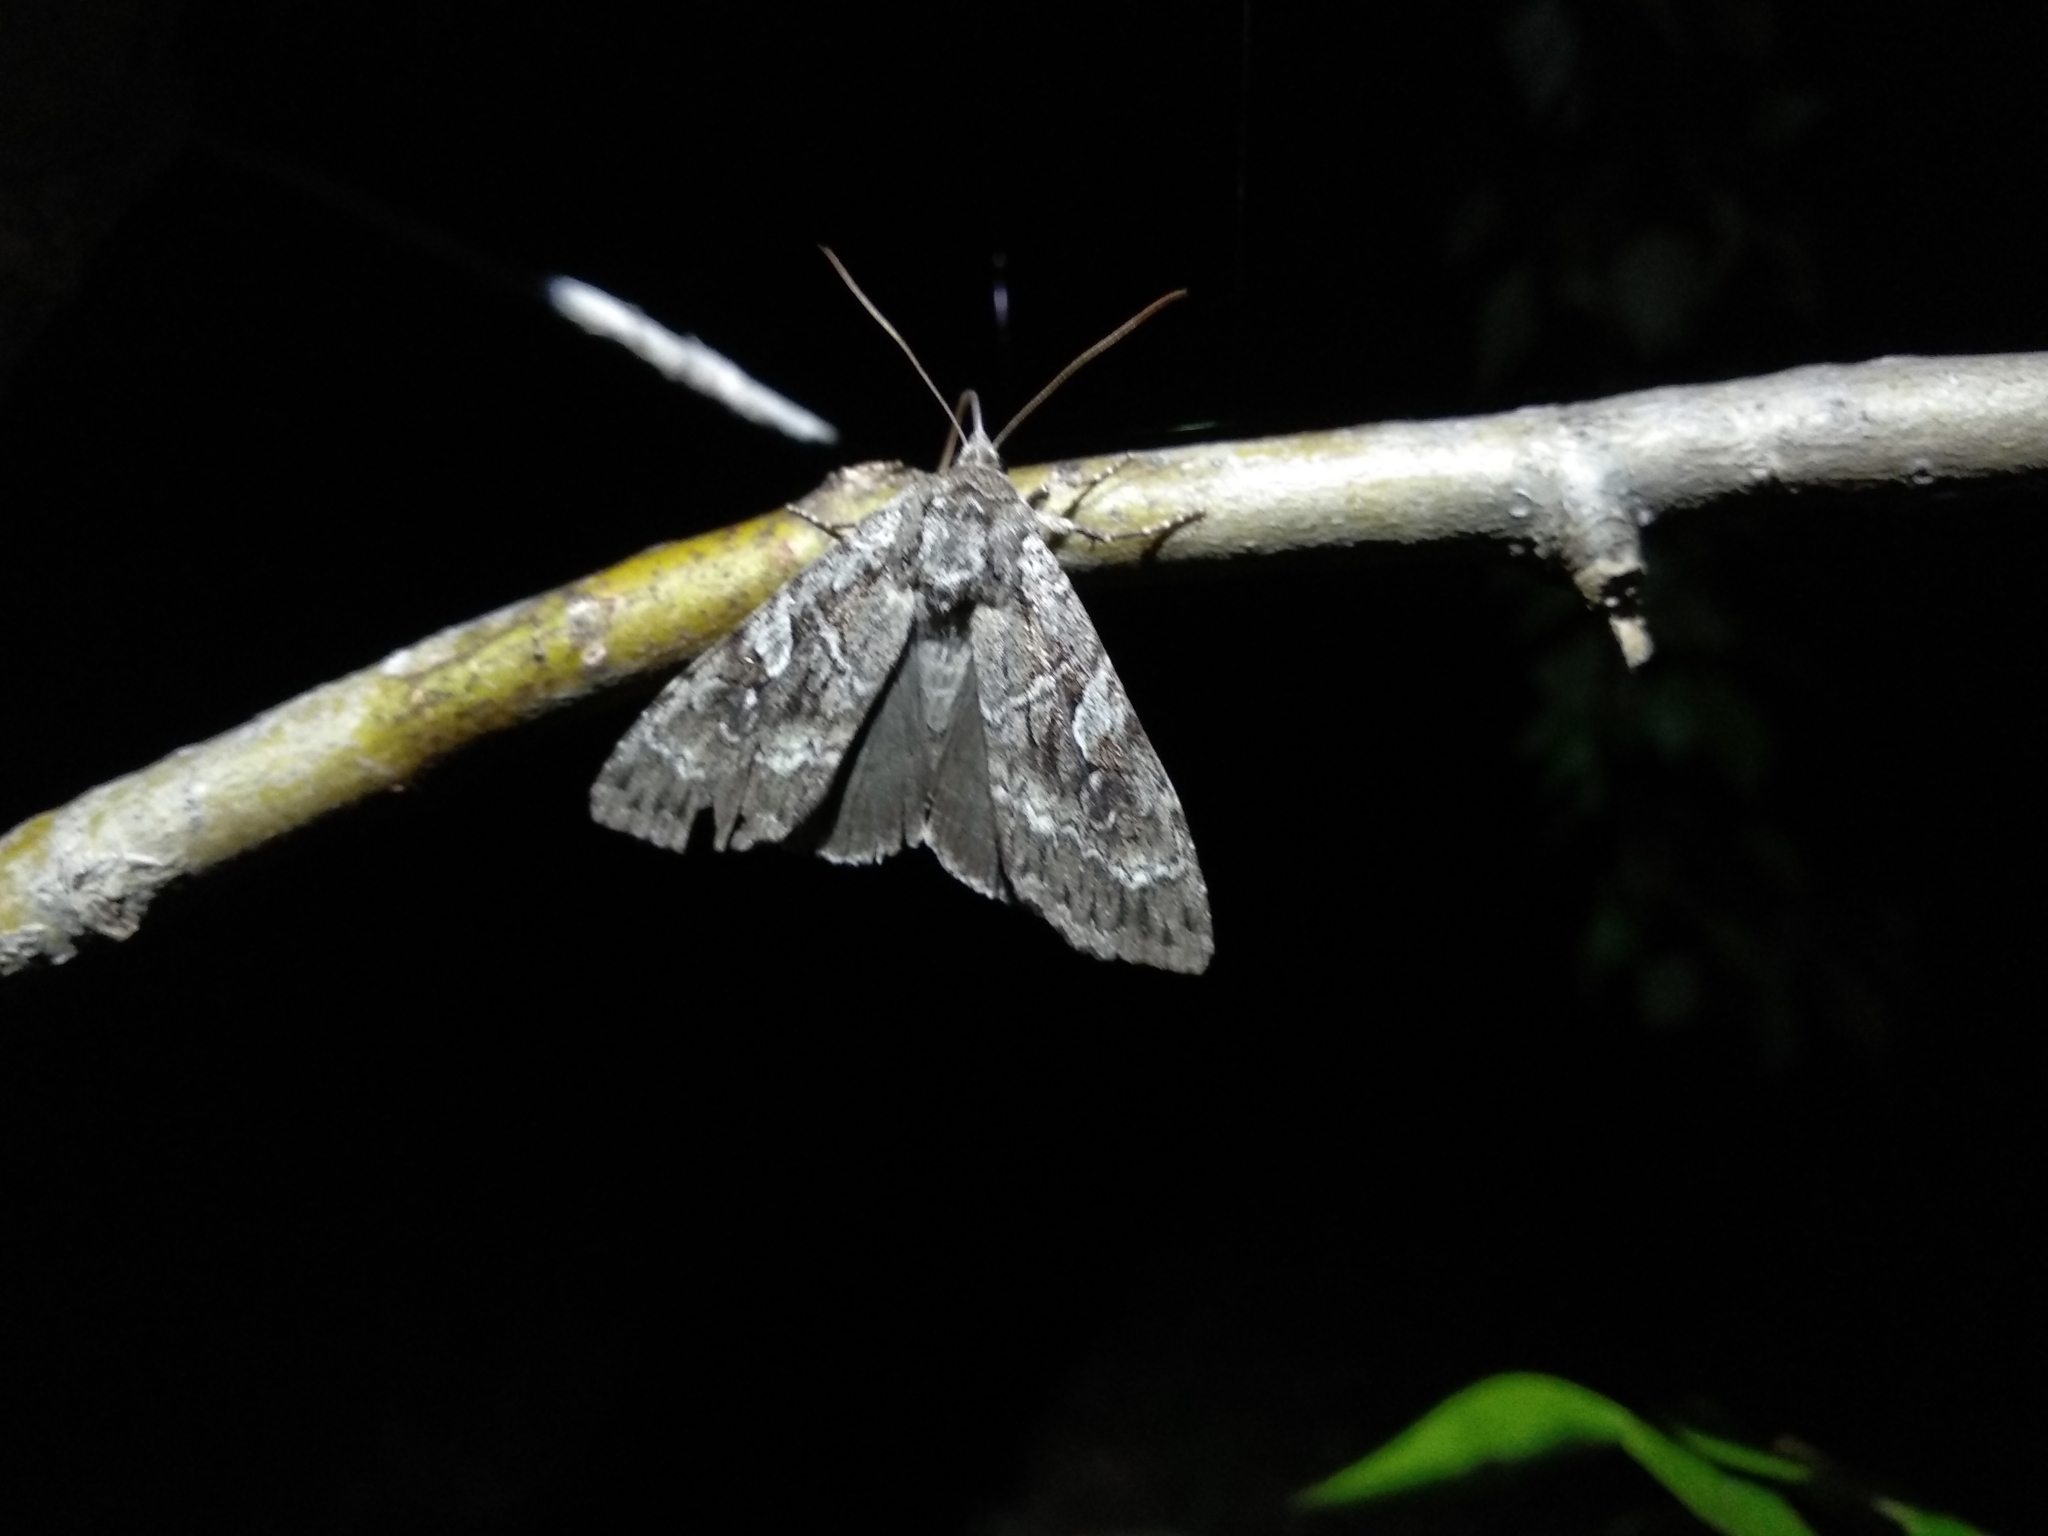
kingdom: Animalia
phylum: Arthropoda
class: Insecta
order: Lepidoptera
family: Noctuidae
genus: Eurois
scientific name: Eurois occulta
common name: Great brocade
